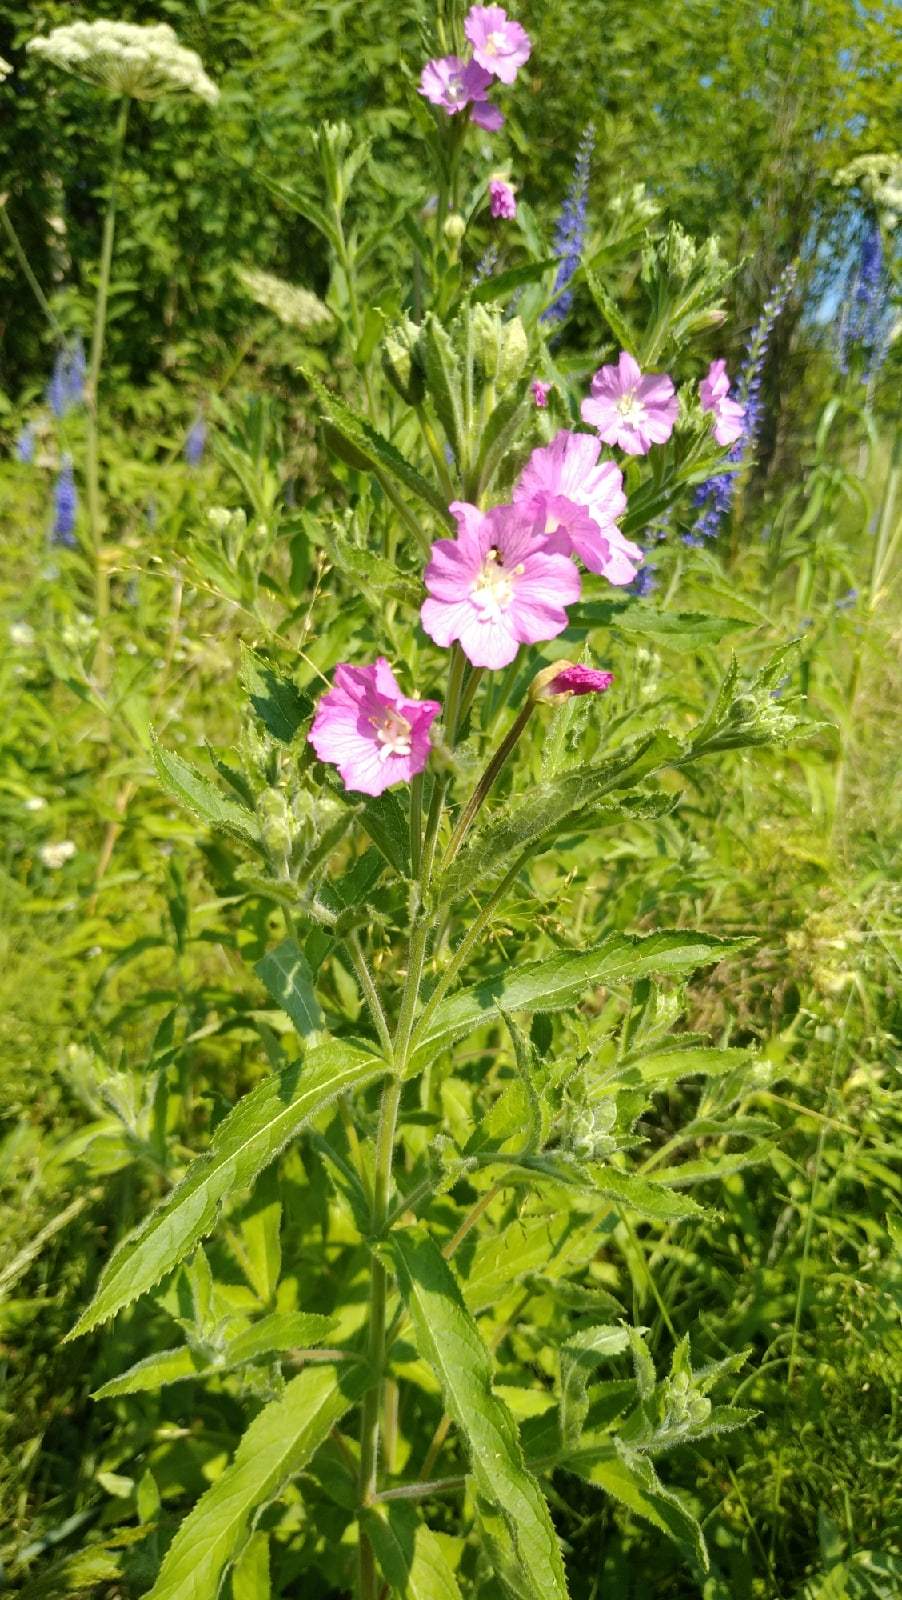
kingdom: Plantae
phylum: Tracheophyta
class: Magnoliopsida
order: Myrtales
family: Onagraceae
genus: Epilobium
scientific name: Epilobium hirsutum
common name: Great willowherb
